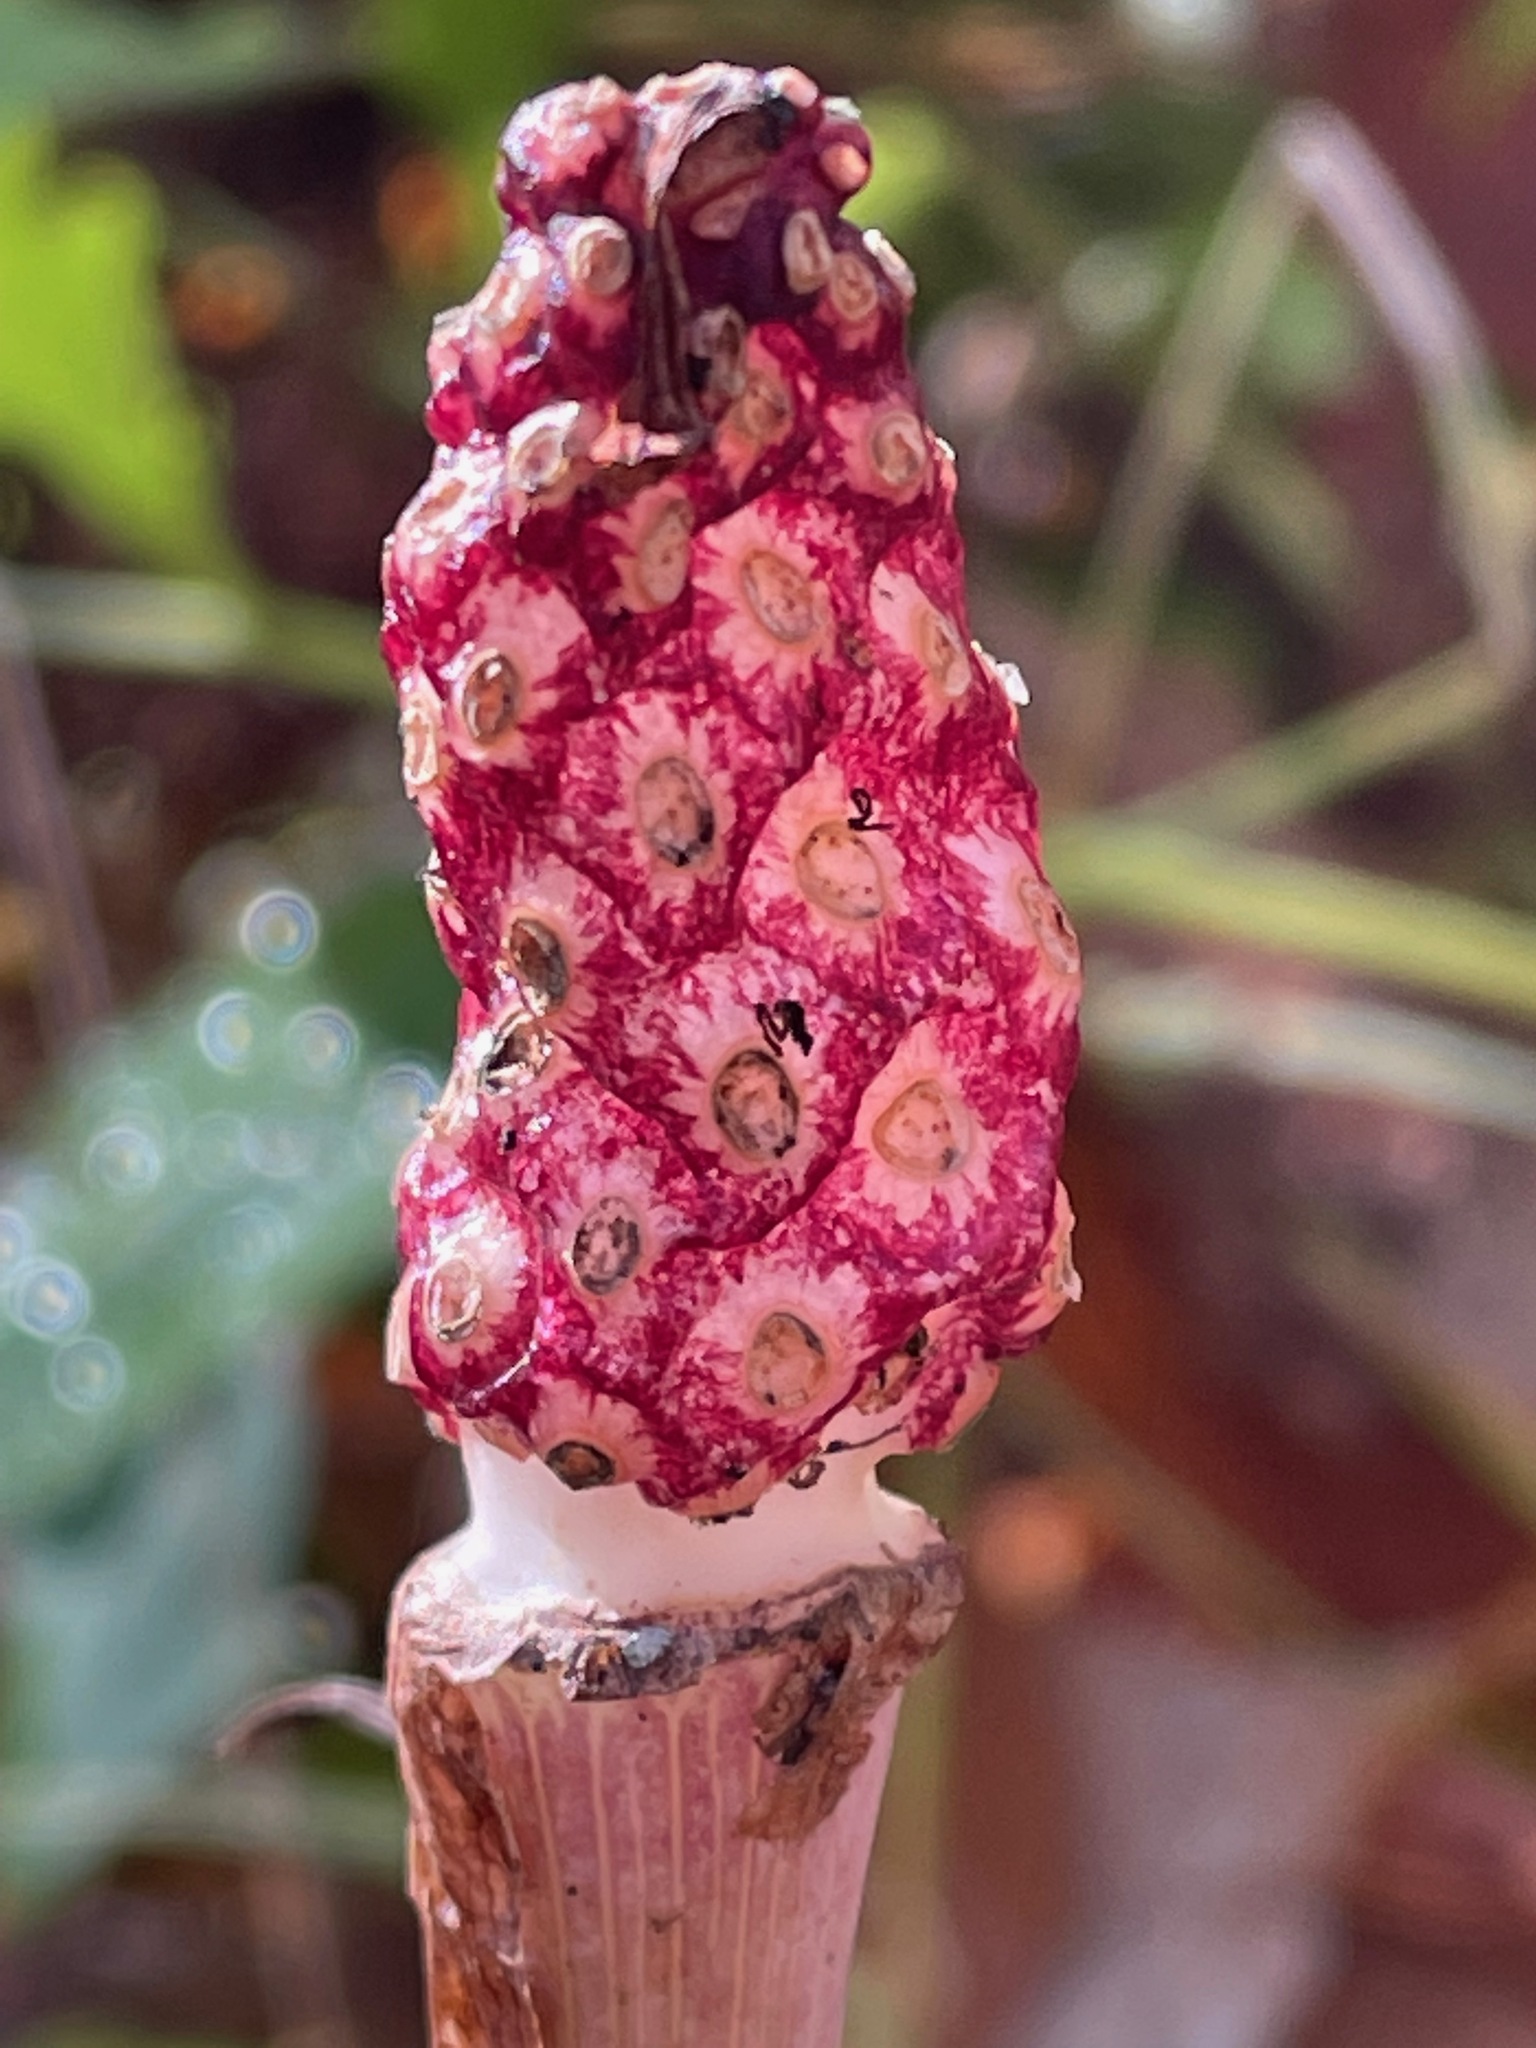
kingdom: Plantae
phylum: Tracheophyta
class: Liliopsida
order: Alismatales
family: Araceae
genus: Arisaema
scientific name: Arisaema
